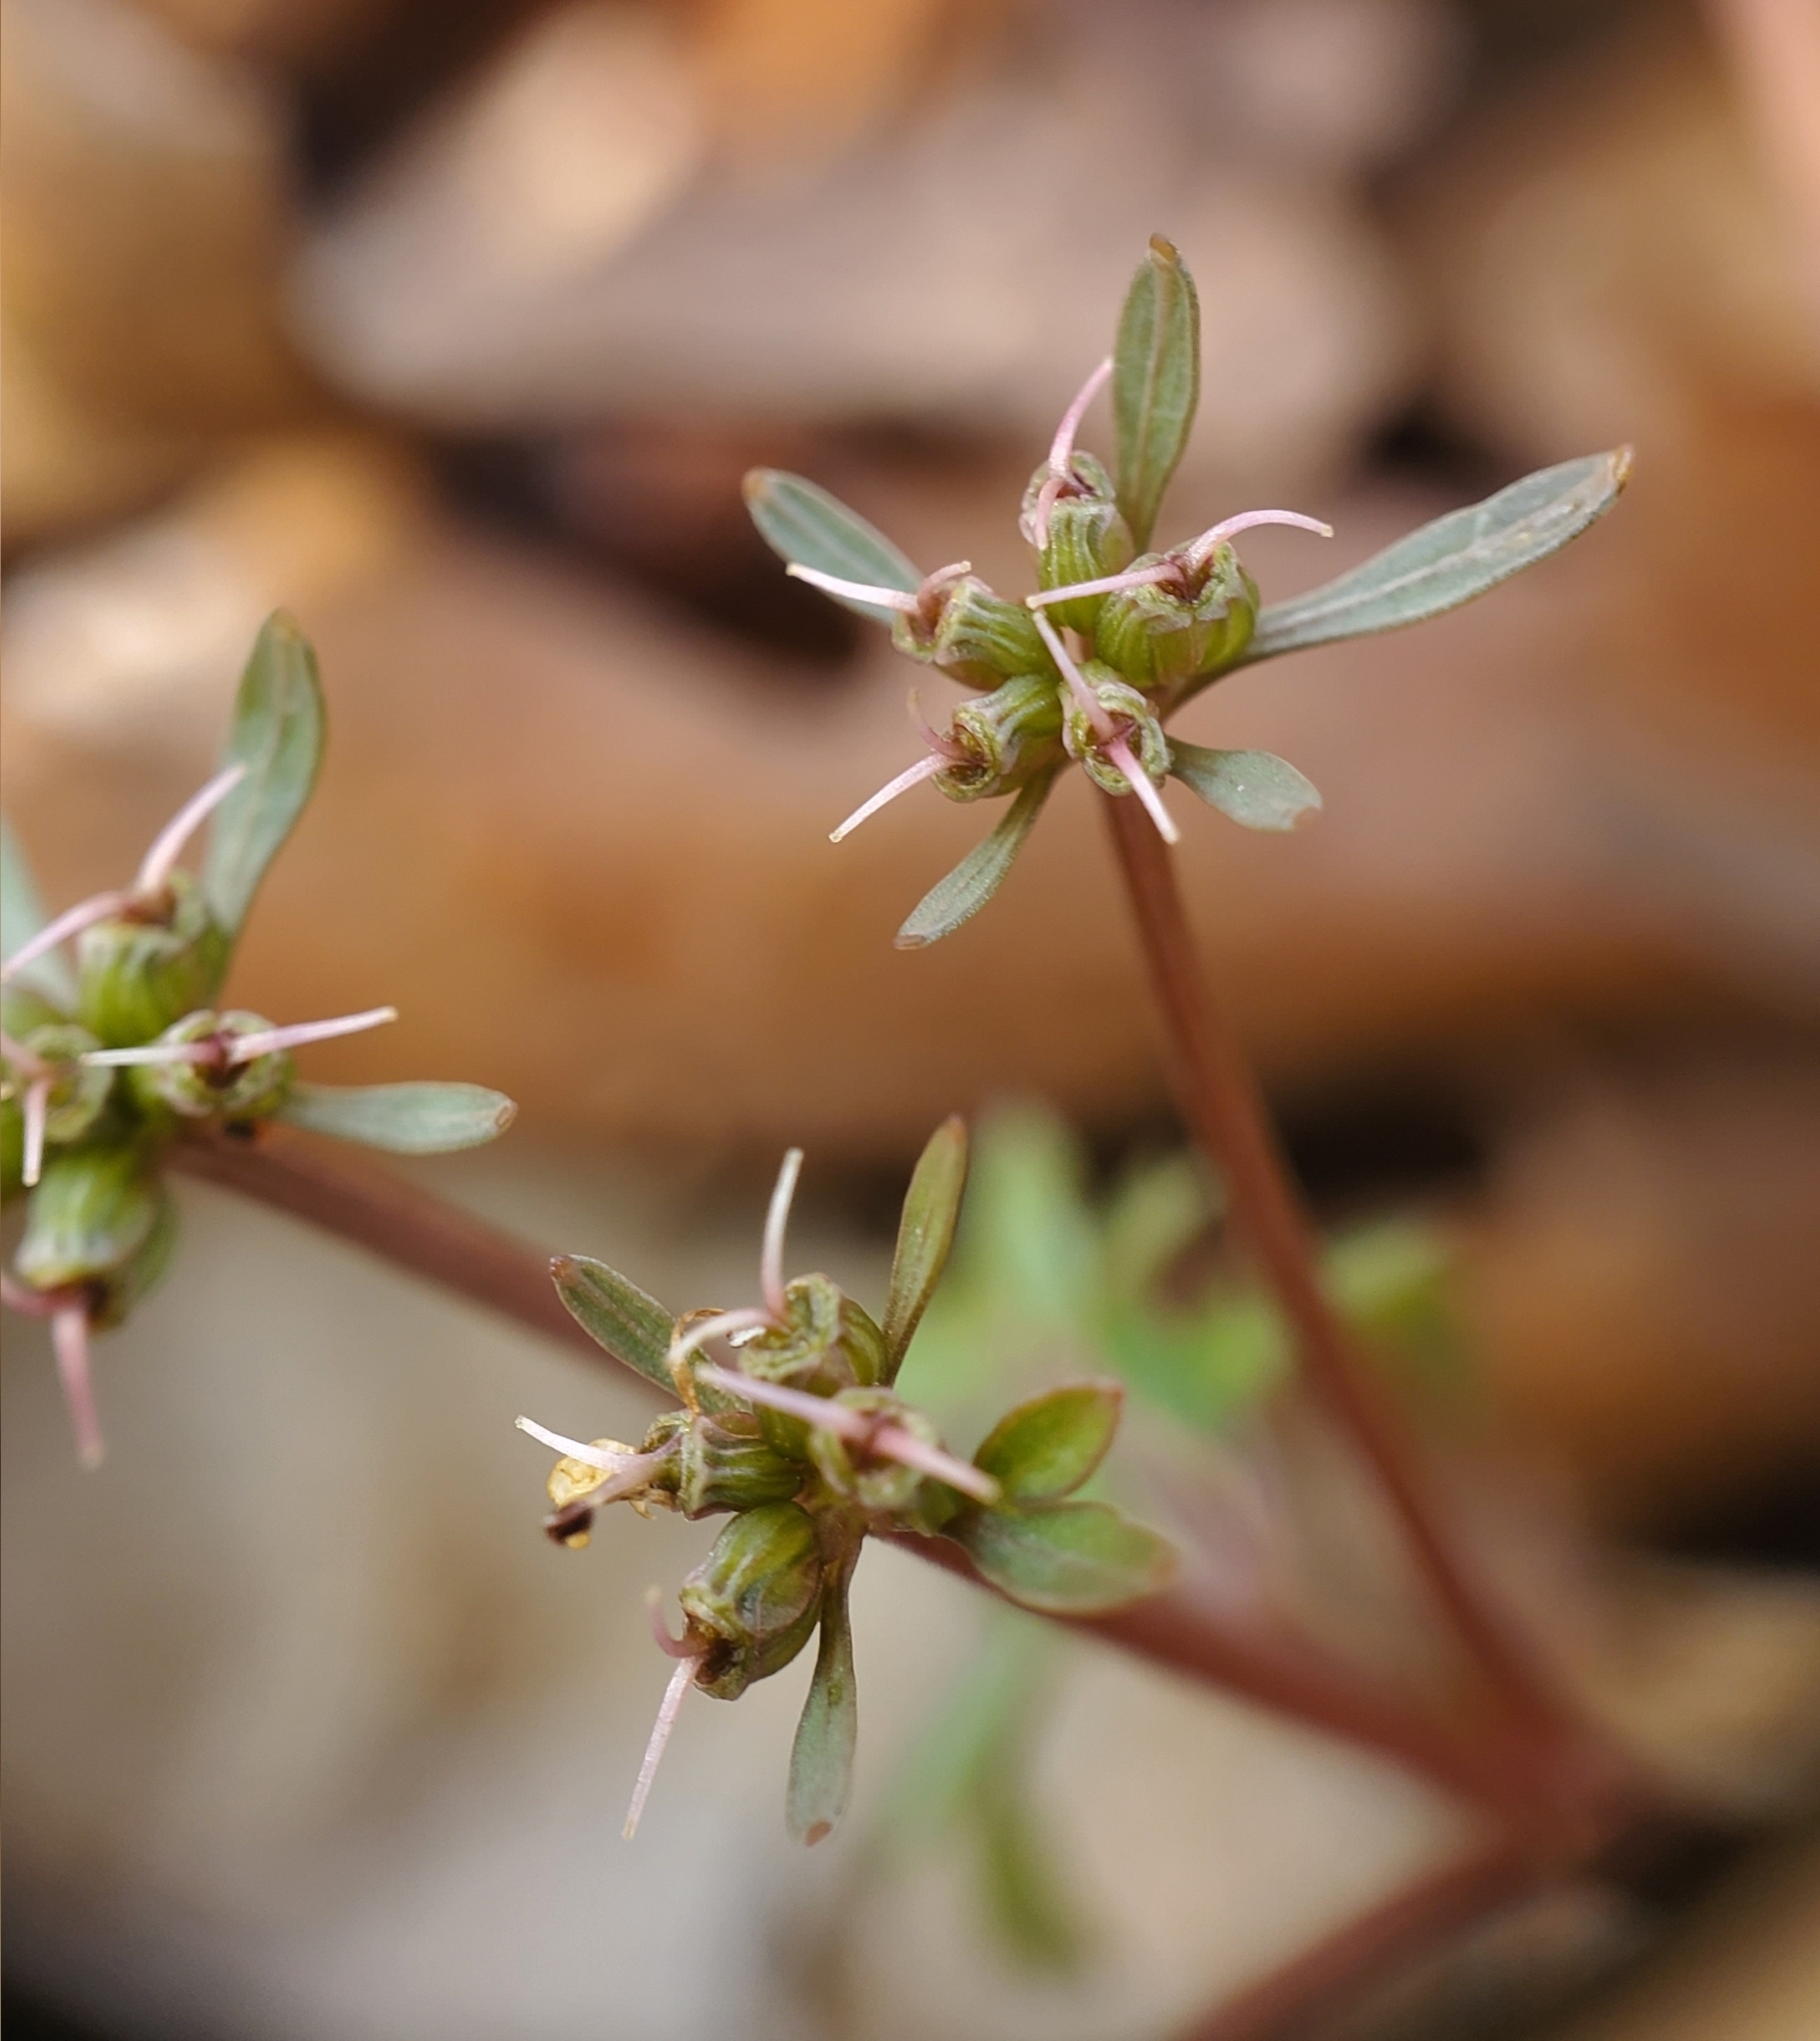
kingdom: Plantae
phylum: Tracheophyta
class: Magnoliopsida
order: Apiales
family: Apiaceae
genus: Erigenia
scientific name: Erigenia bulbosa
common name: Pepper-and-salt
